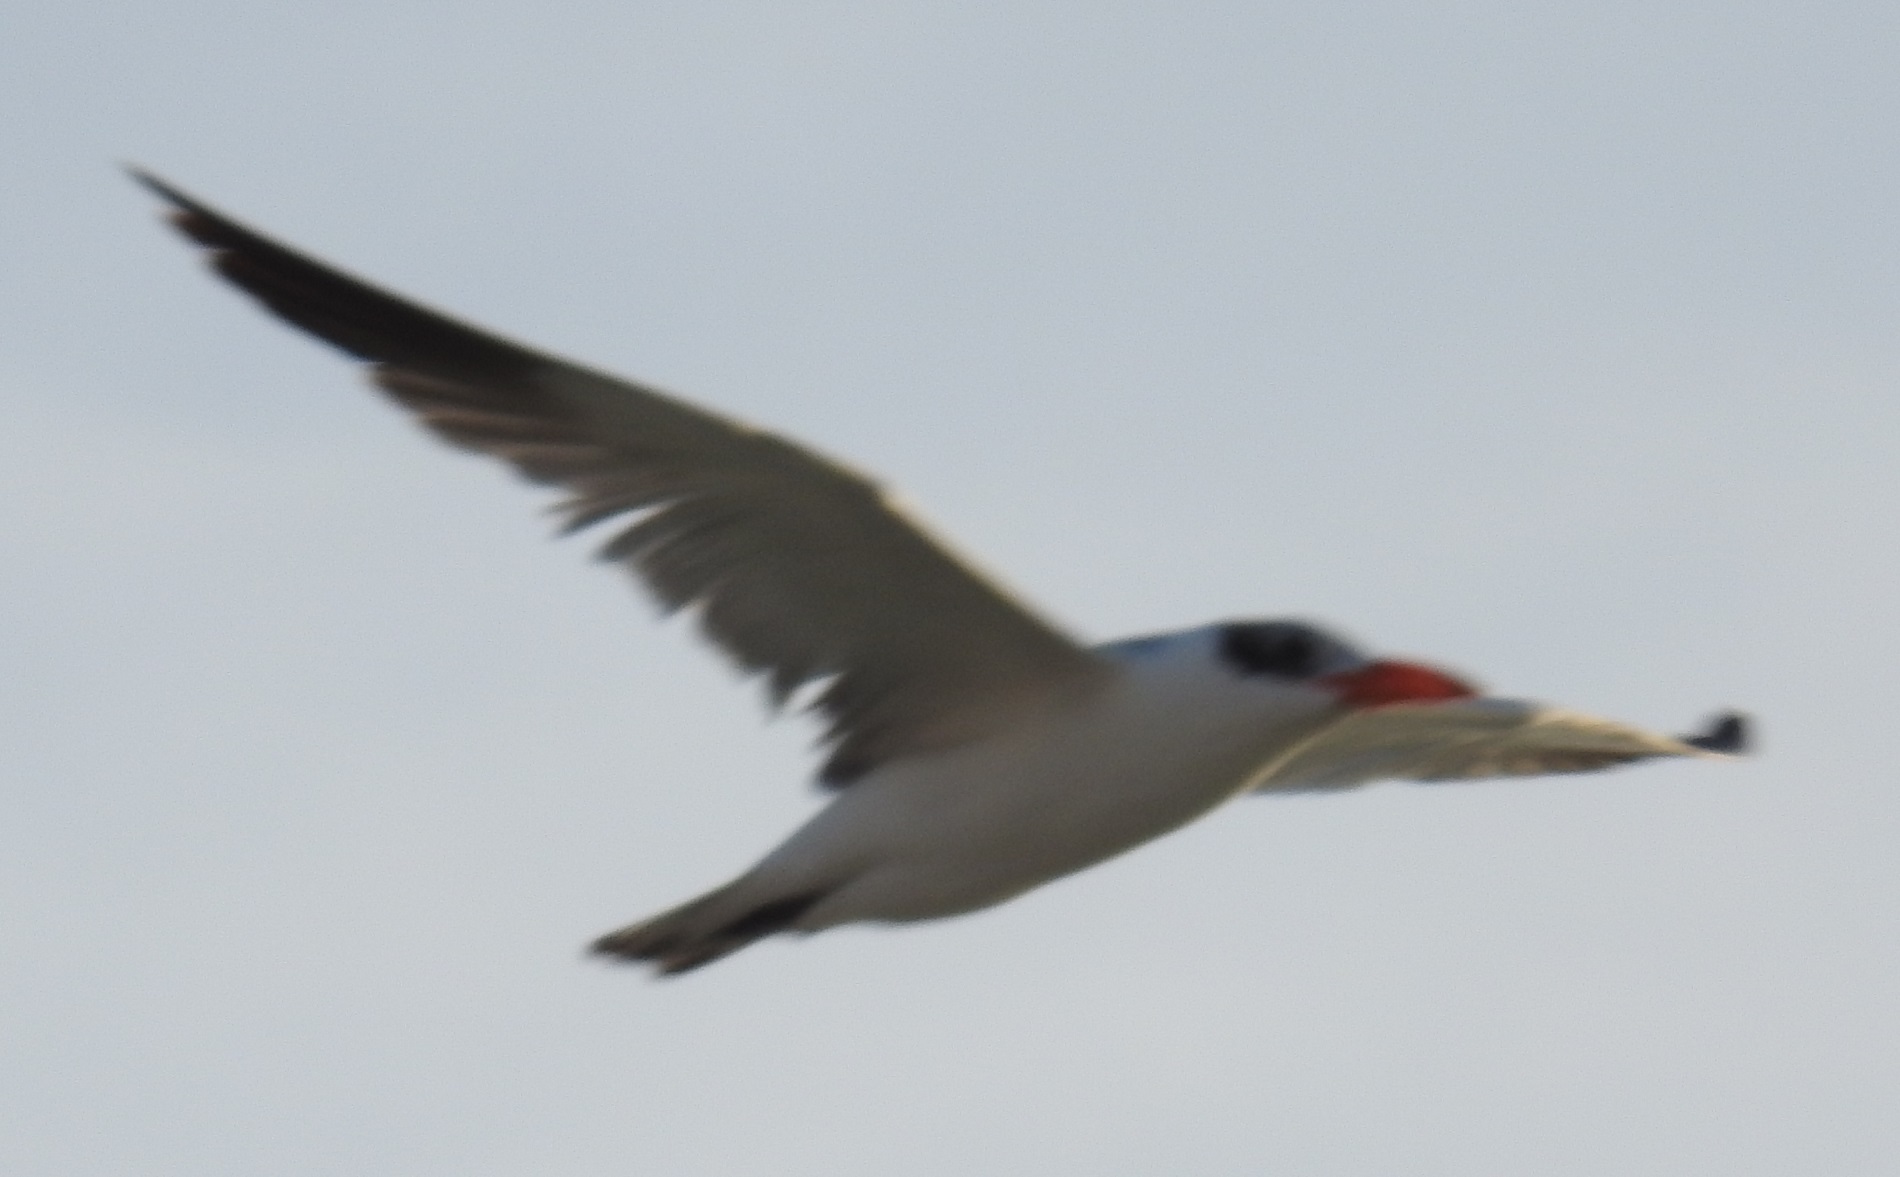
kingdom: Animalia
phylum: Chordata
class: Aves
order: Charadriiformes
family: Laridae
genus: Hydroprogne
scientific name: Hydroprogne caspia
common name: Caspian tern
